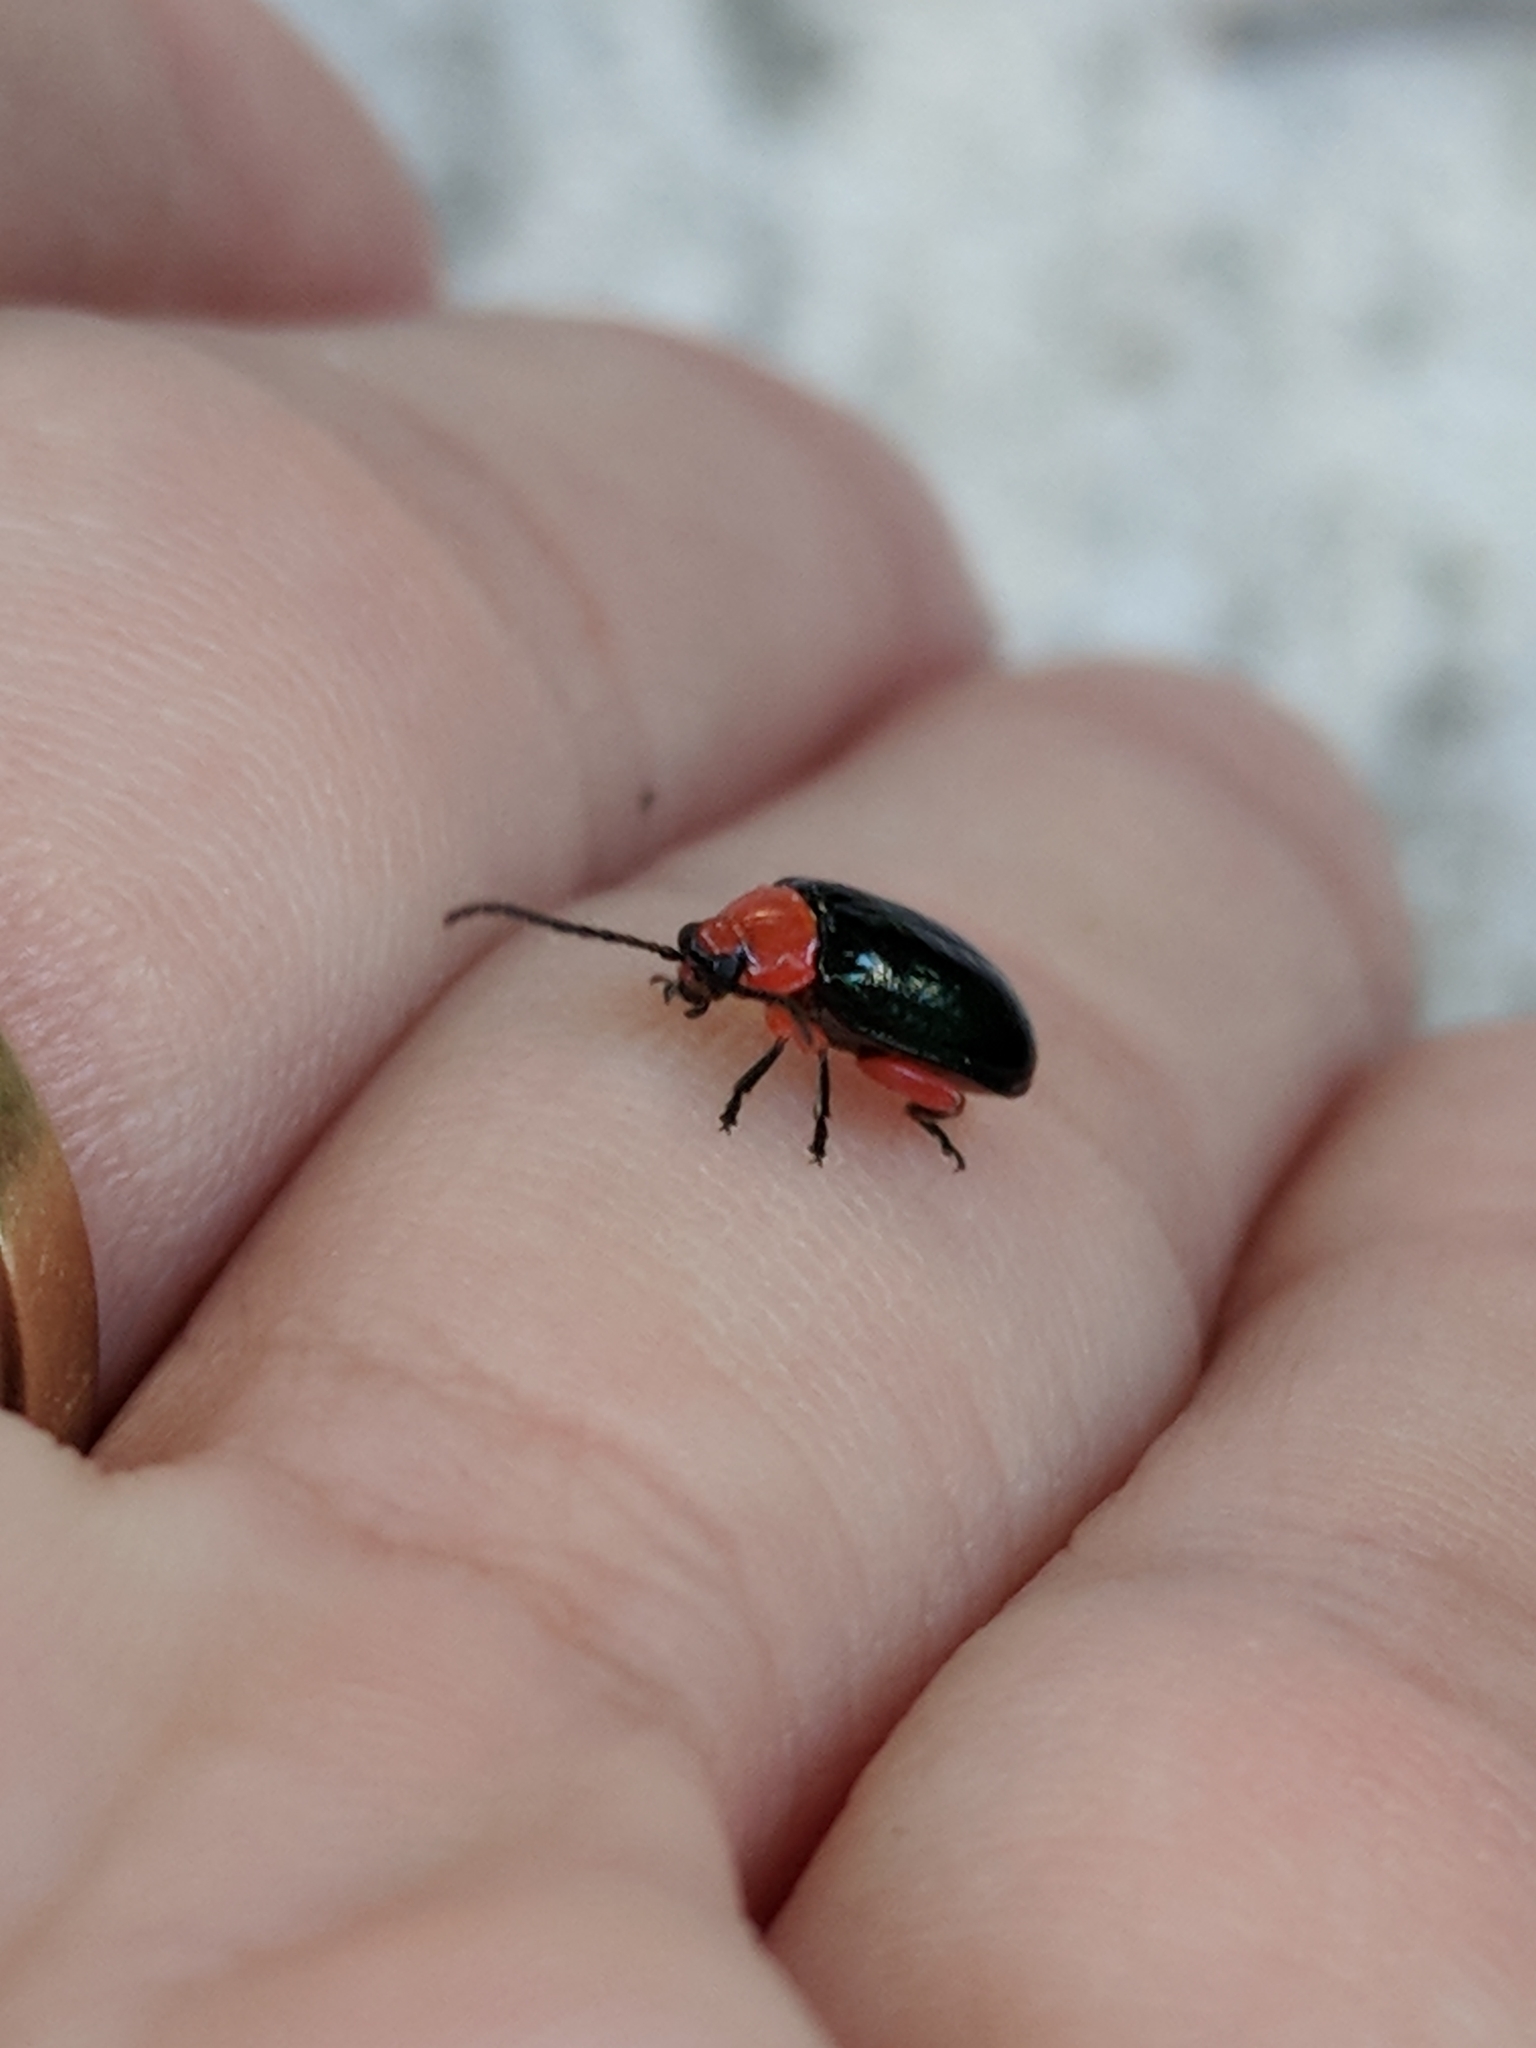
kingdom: Animalia
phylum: Arthropoda
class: Insecta
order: Coleoptera
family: Chrysomelidae
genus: Asphaera
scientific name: Asphaera lustrans
